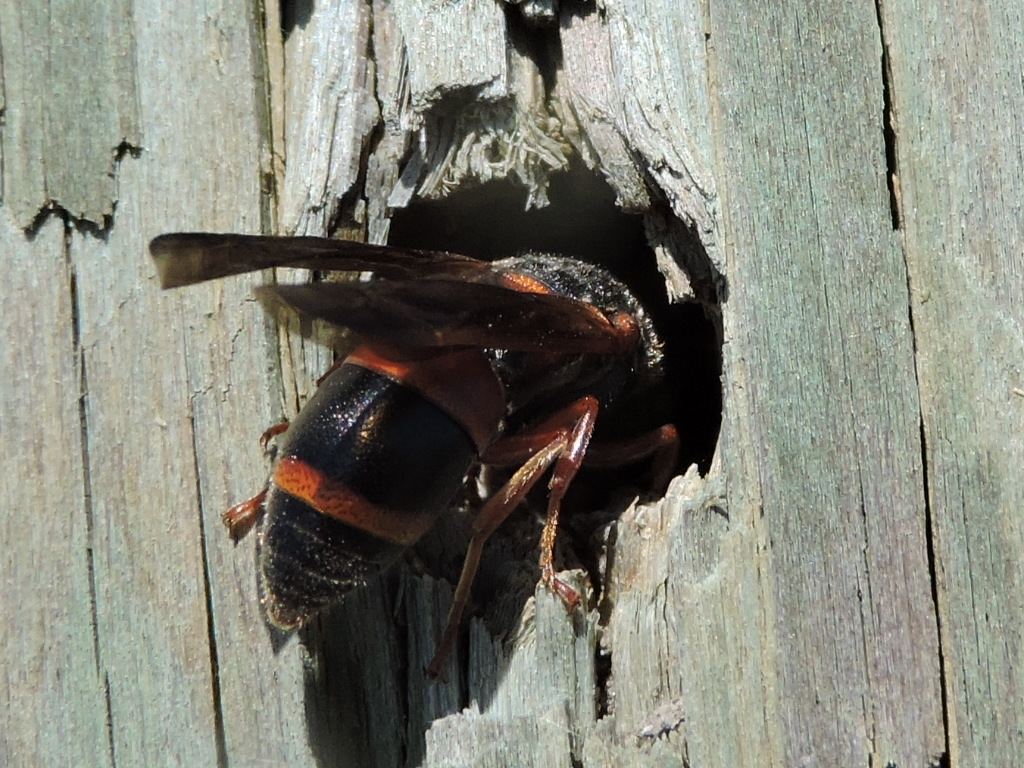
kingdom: Animalia
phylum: Arthropoda
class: Insecta
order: Hymenoptera
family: Eumenidae
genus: Pachodynerus
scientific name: Pachodynerus erynnis
